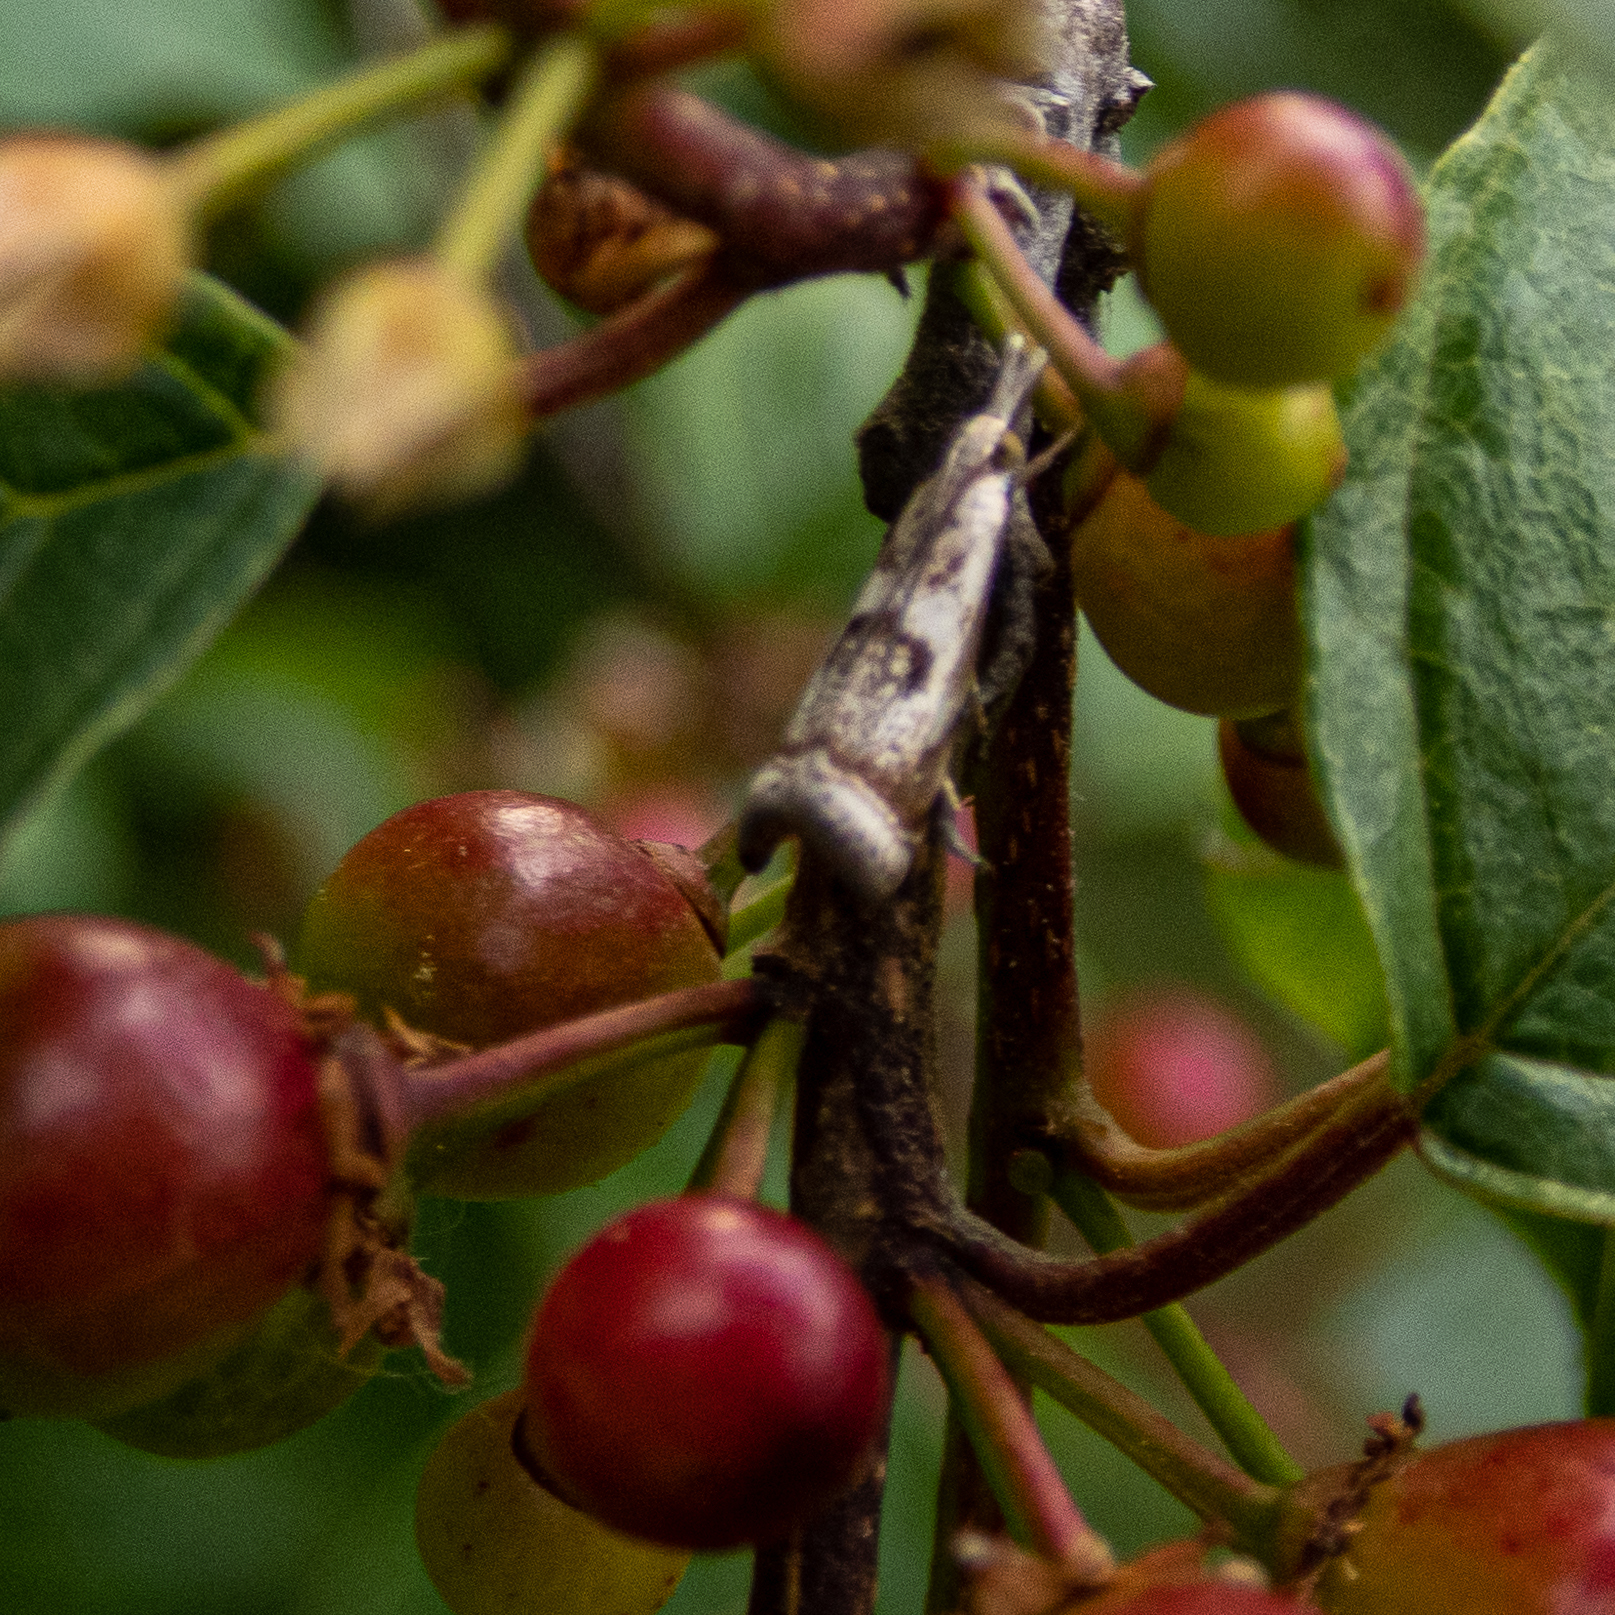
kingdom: Animalia
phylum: Arthropoda
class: Insecta
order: Lepidoptera
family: Crambidae
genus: Microcrambus
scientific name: Microcrambus elegans
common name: Elegant grass-veneer
